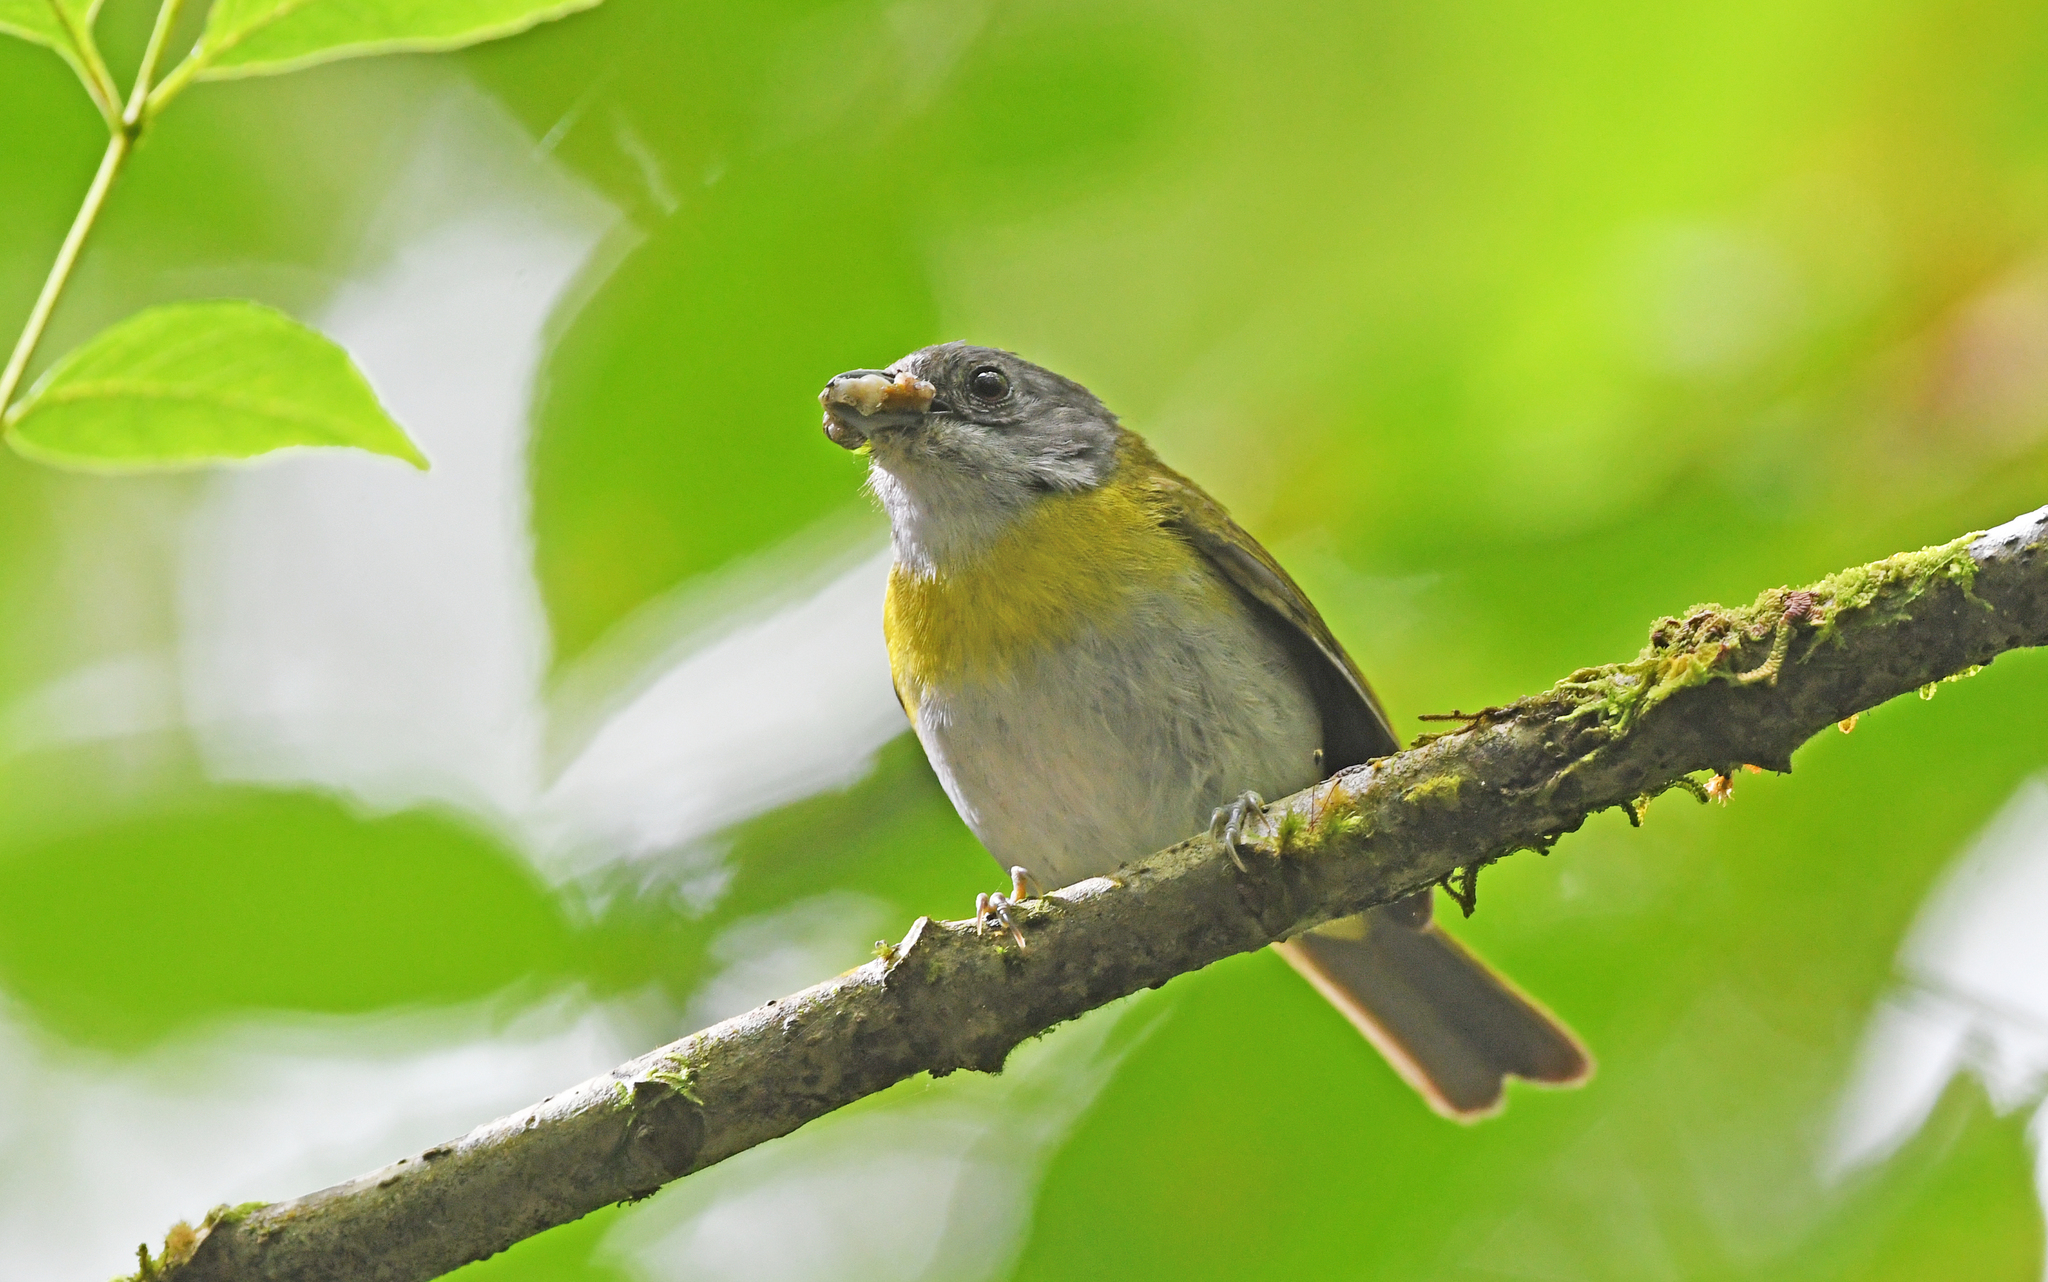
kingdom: Animalia
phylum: Chordata
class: Aves
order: Passeriformes
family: Passerellidae
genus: Chlorospingus
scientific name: Chlorospingus flavopectus
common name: Common chlorospingus
